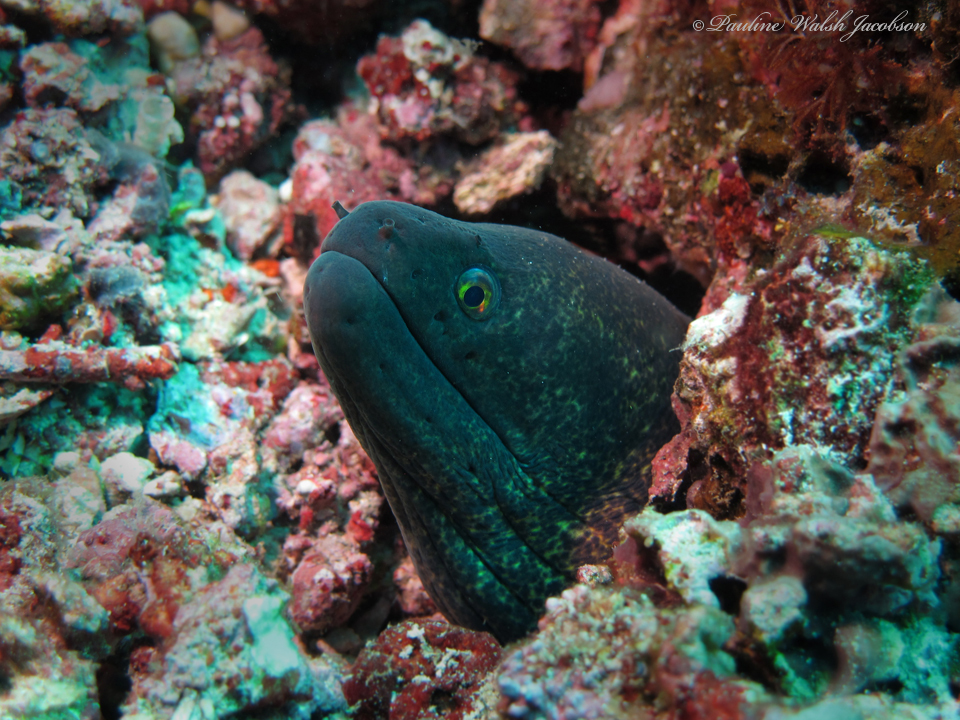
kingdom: Animalia
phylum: Chordata
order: Anguilliformes
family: Muraenidae
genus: Gymnothorax
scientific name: Gymnothorax flavimarginatus
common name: Yellow-edged moray
